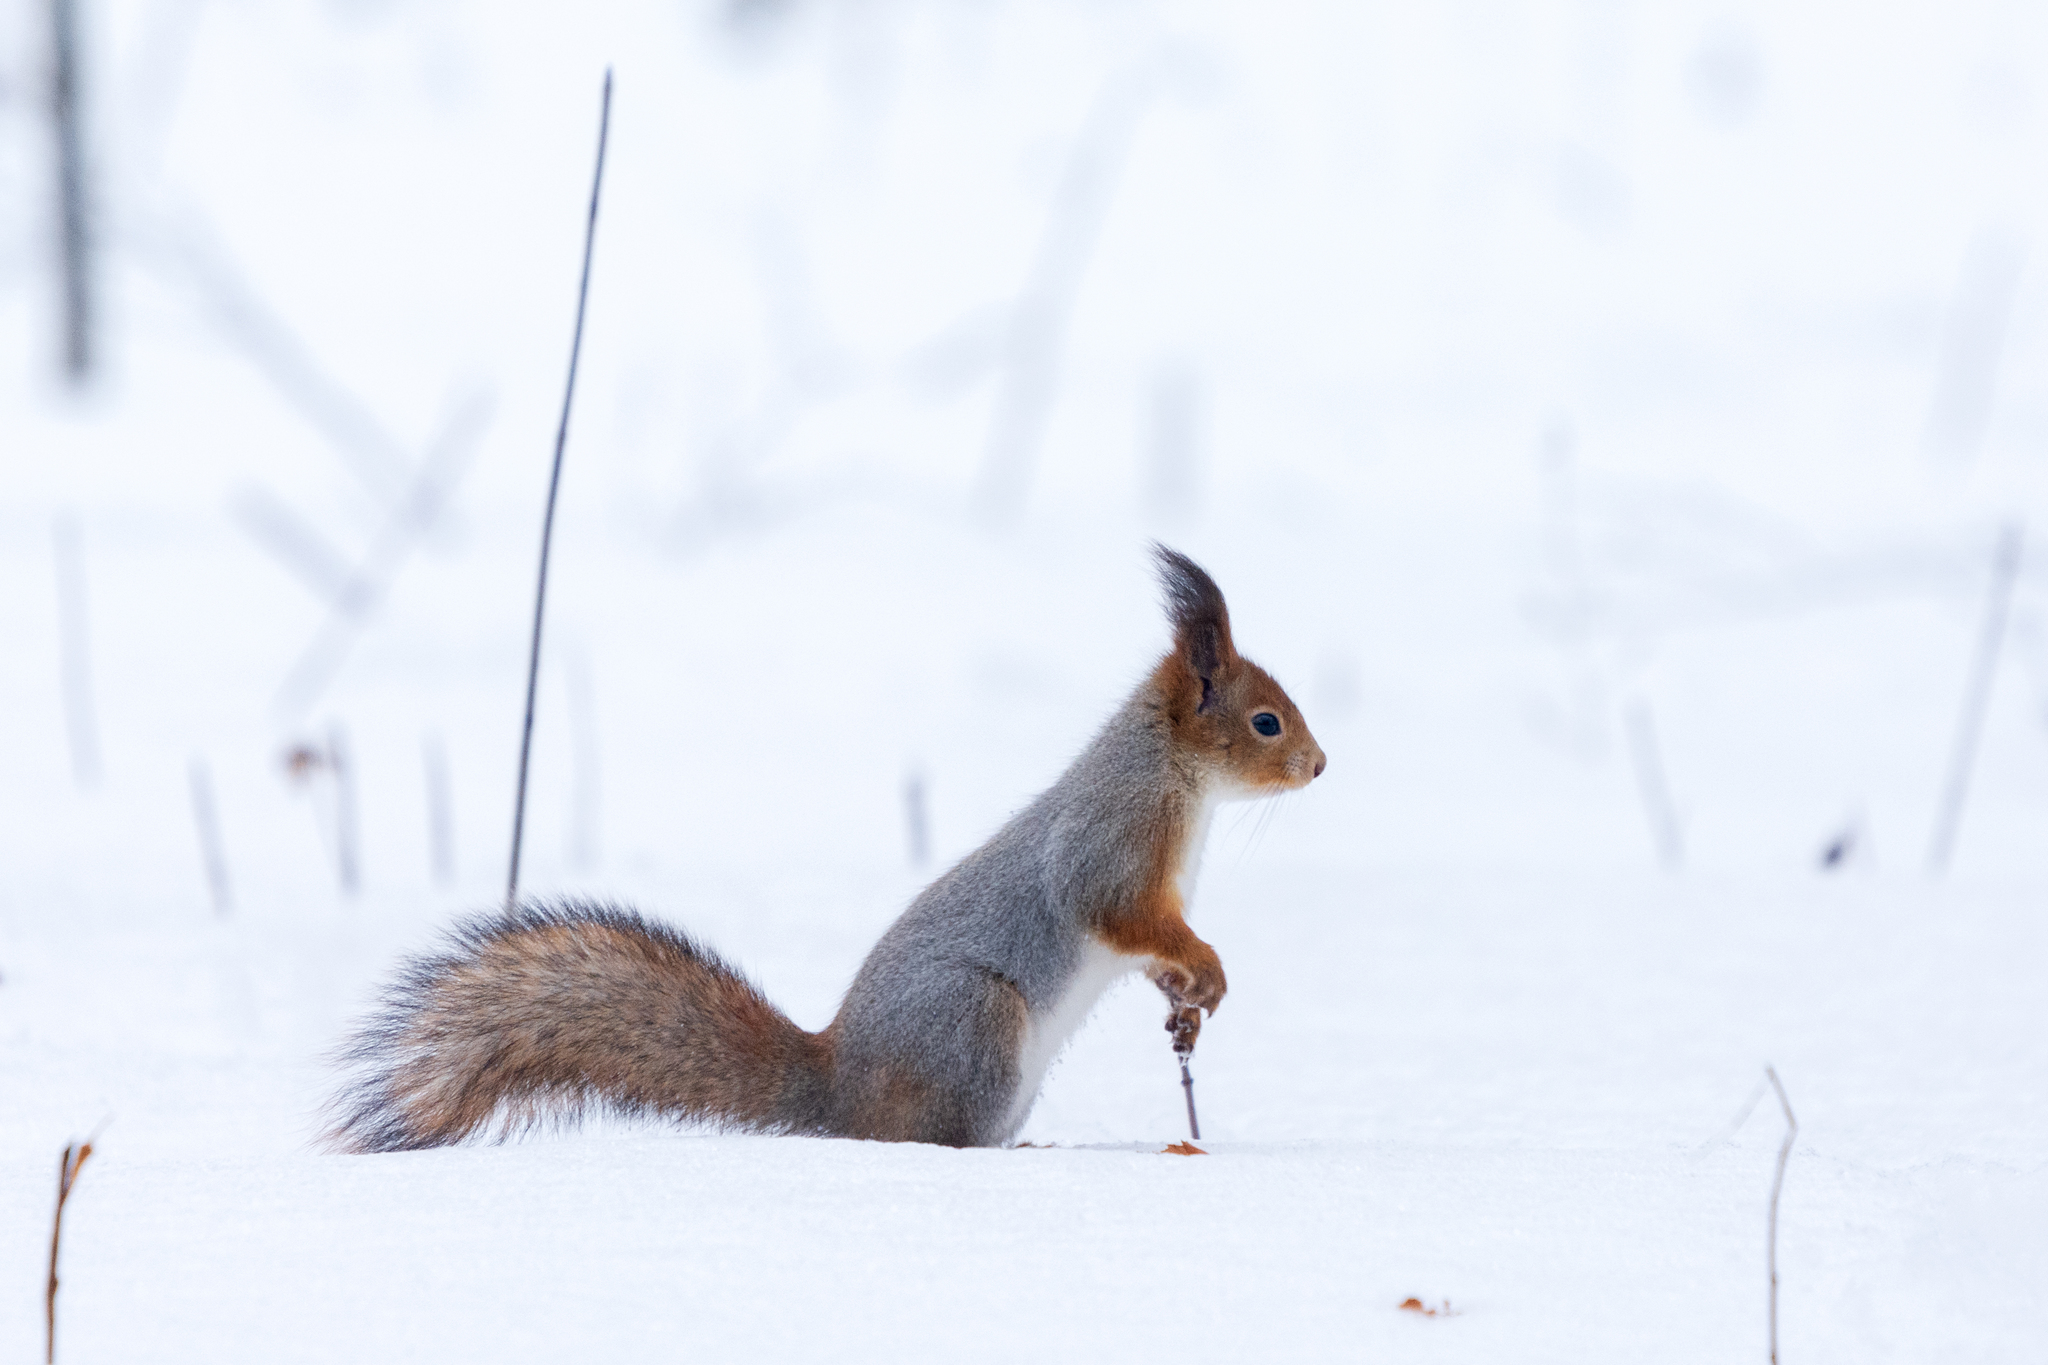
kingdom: Animalia
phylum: Chordata
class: Mammalia
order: Rodentia
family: Sciuridae
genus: Sciurus
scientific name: Sciurus vulgaris
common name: Eurasian red squirrel
